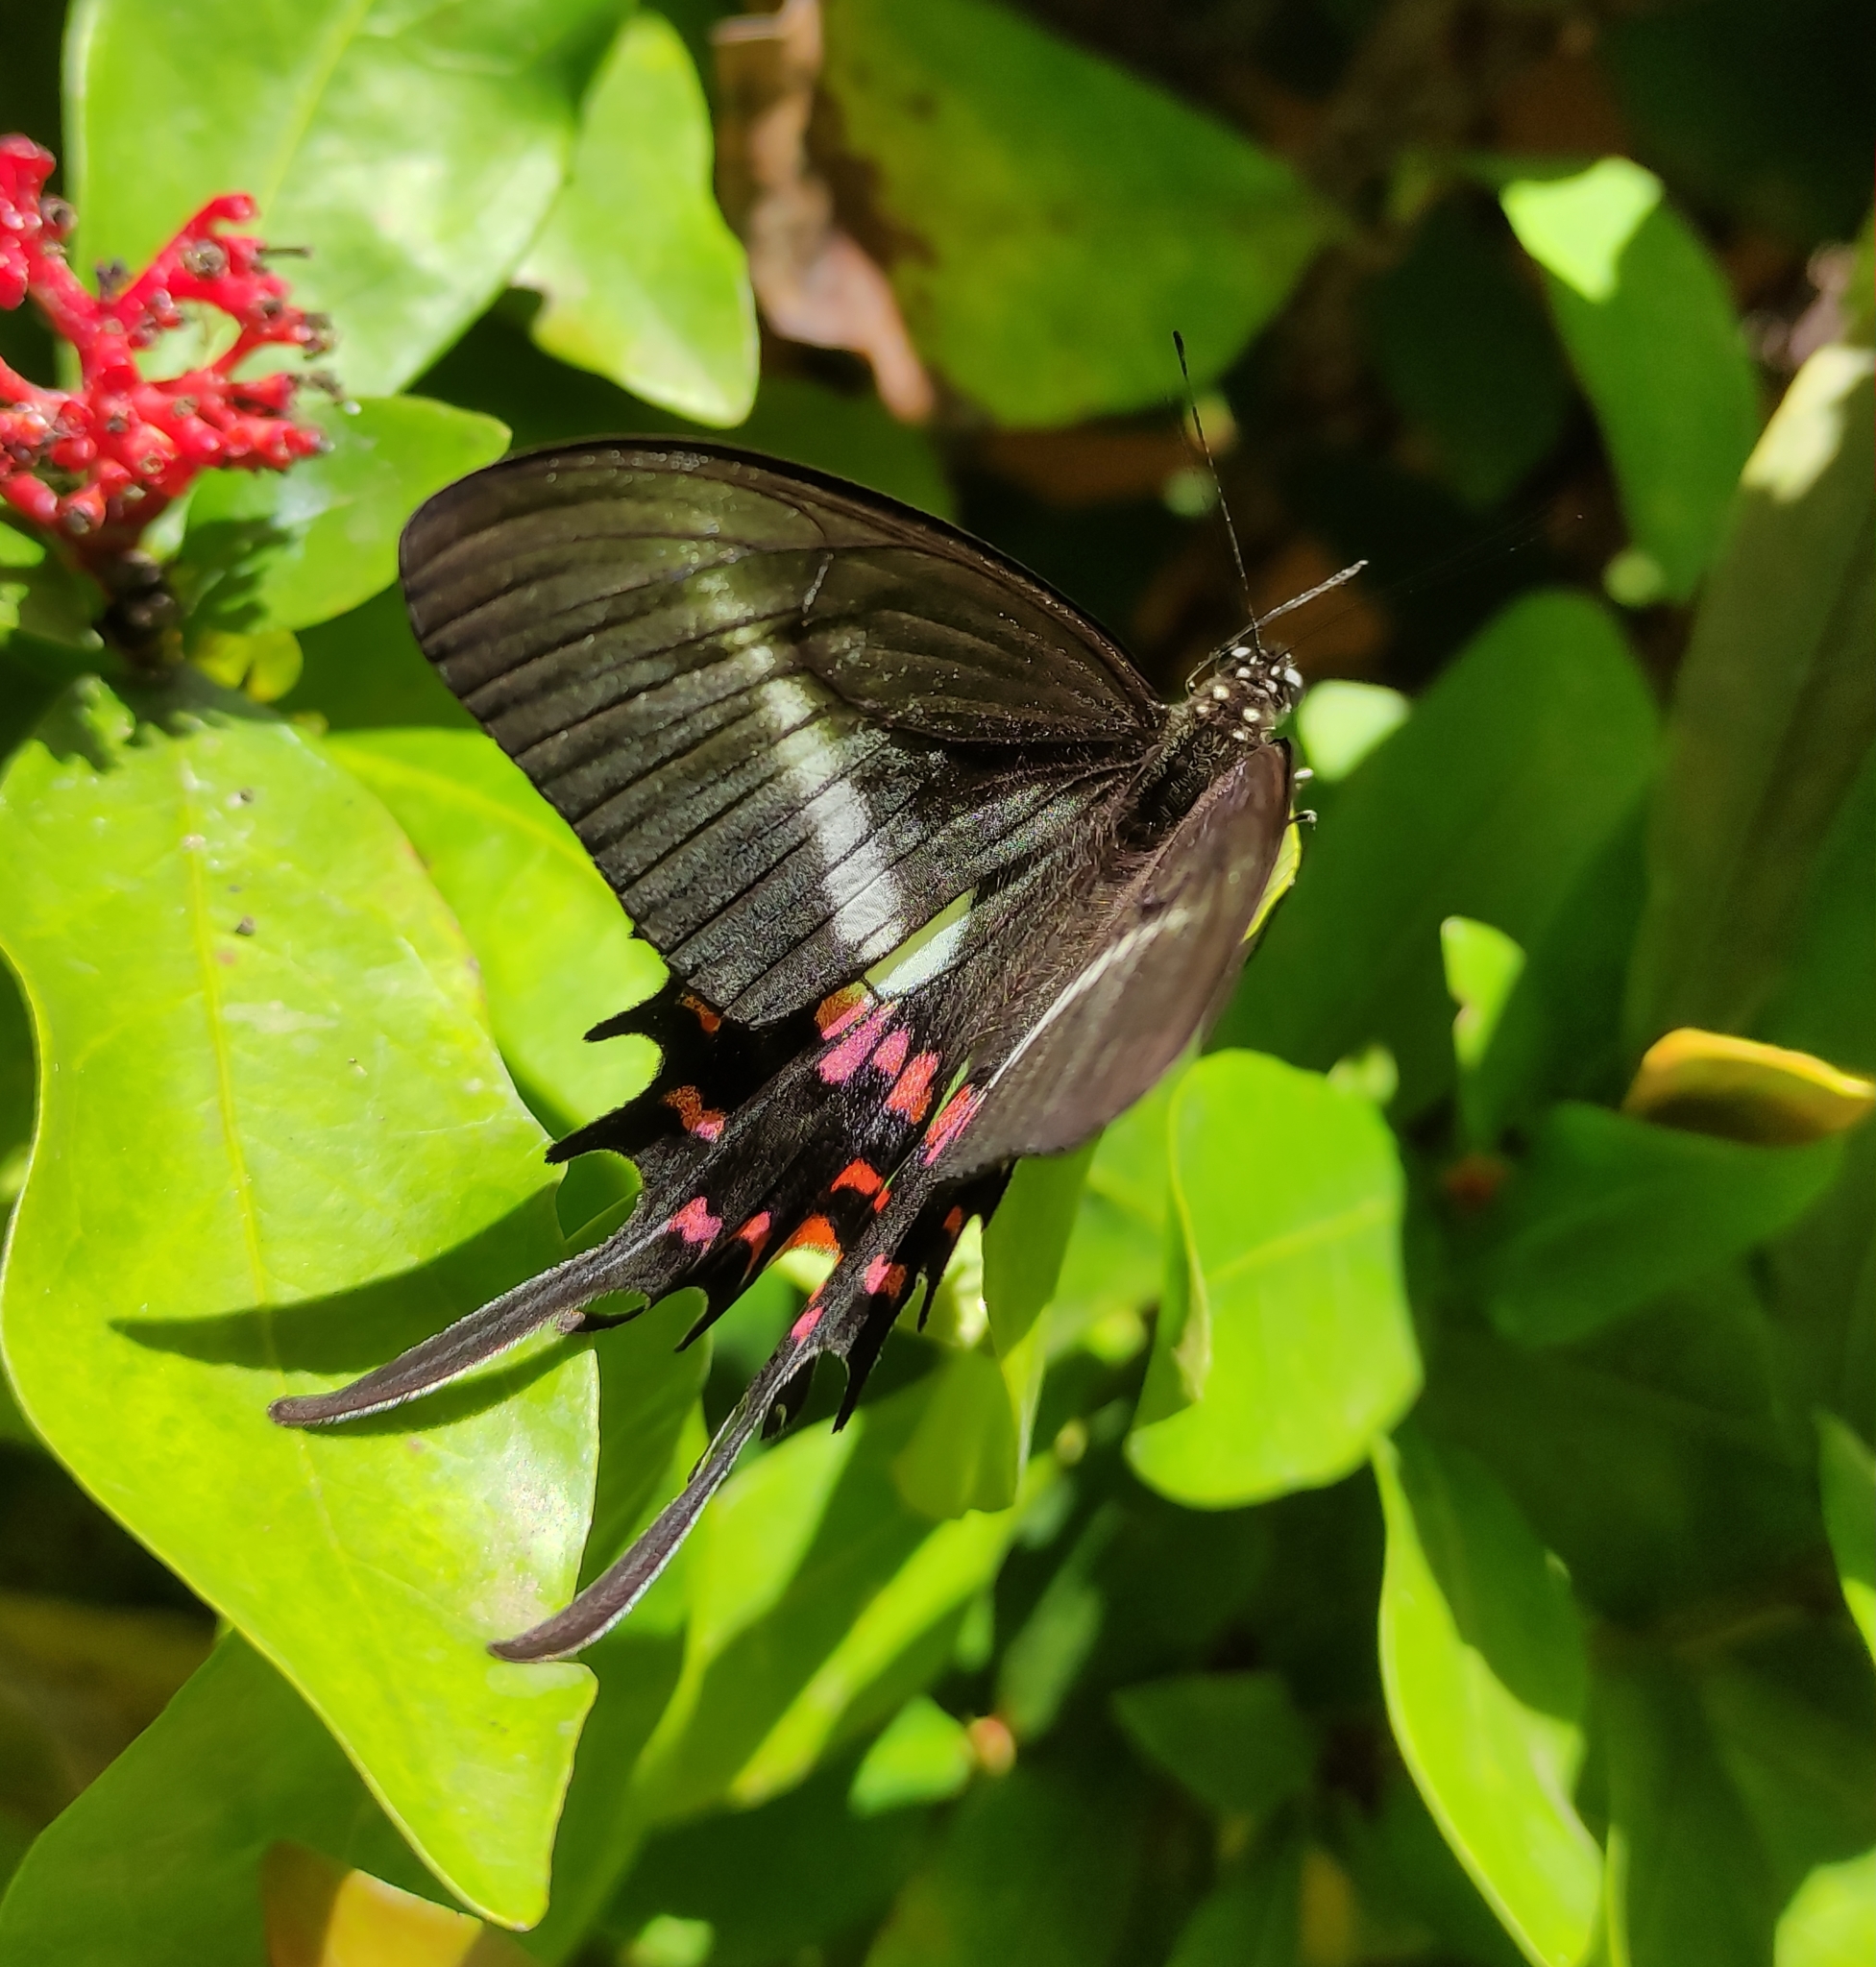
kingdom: Animalia
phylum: Arthropoda
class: Insecta
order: Lepidoptera
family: Papilionidae
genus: Heraclides
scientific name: Heraclides hectorides
